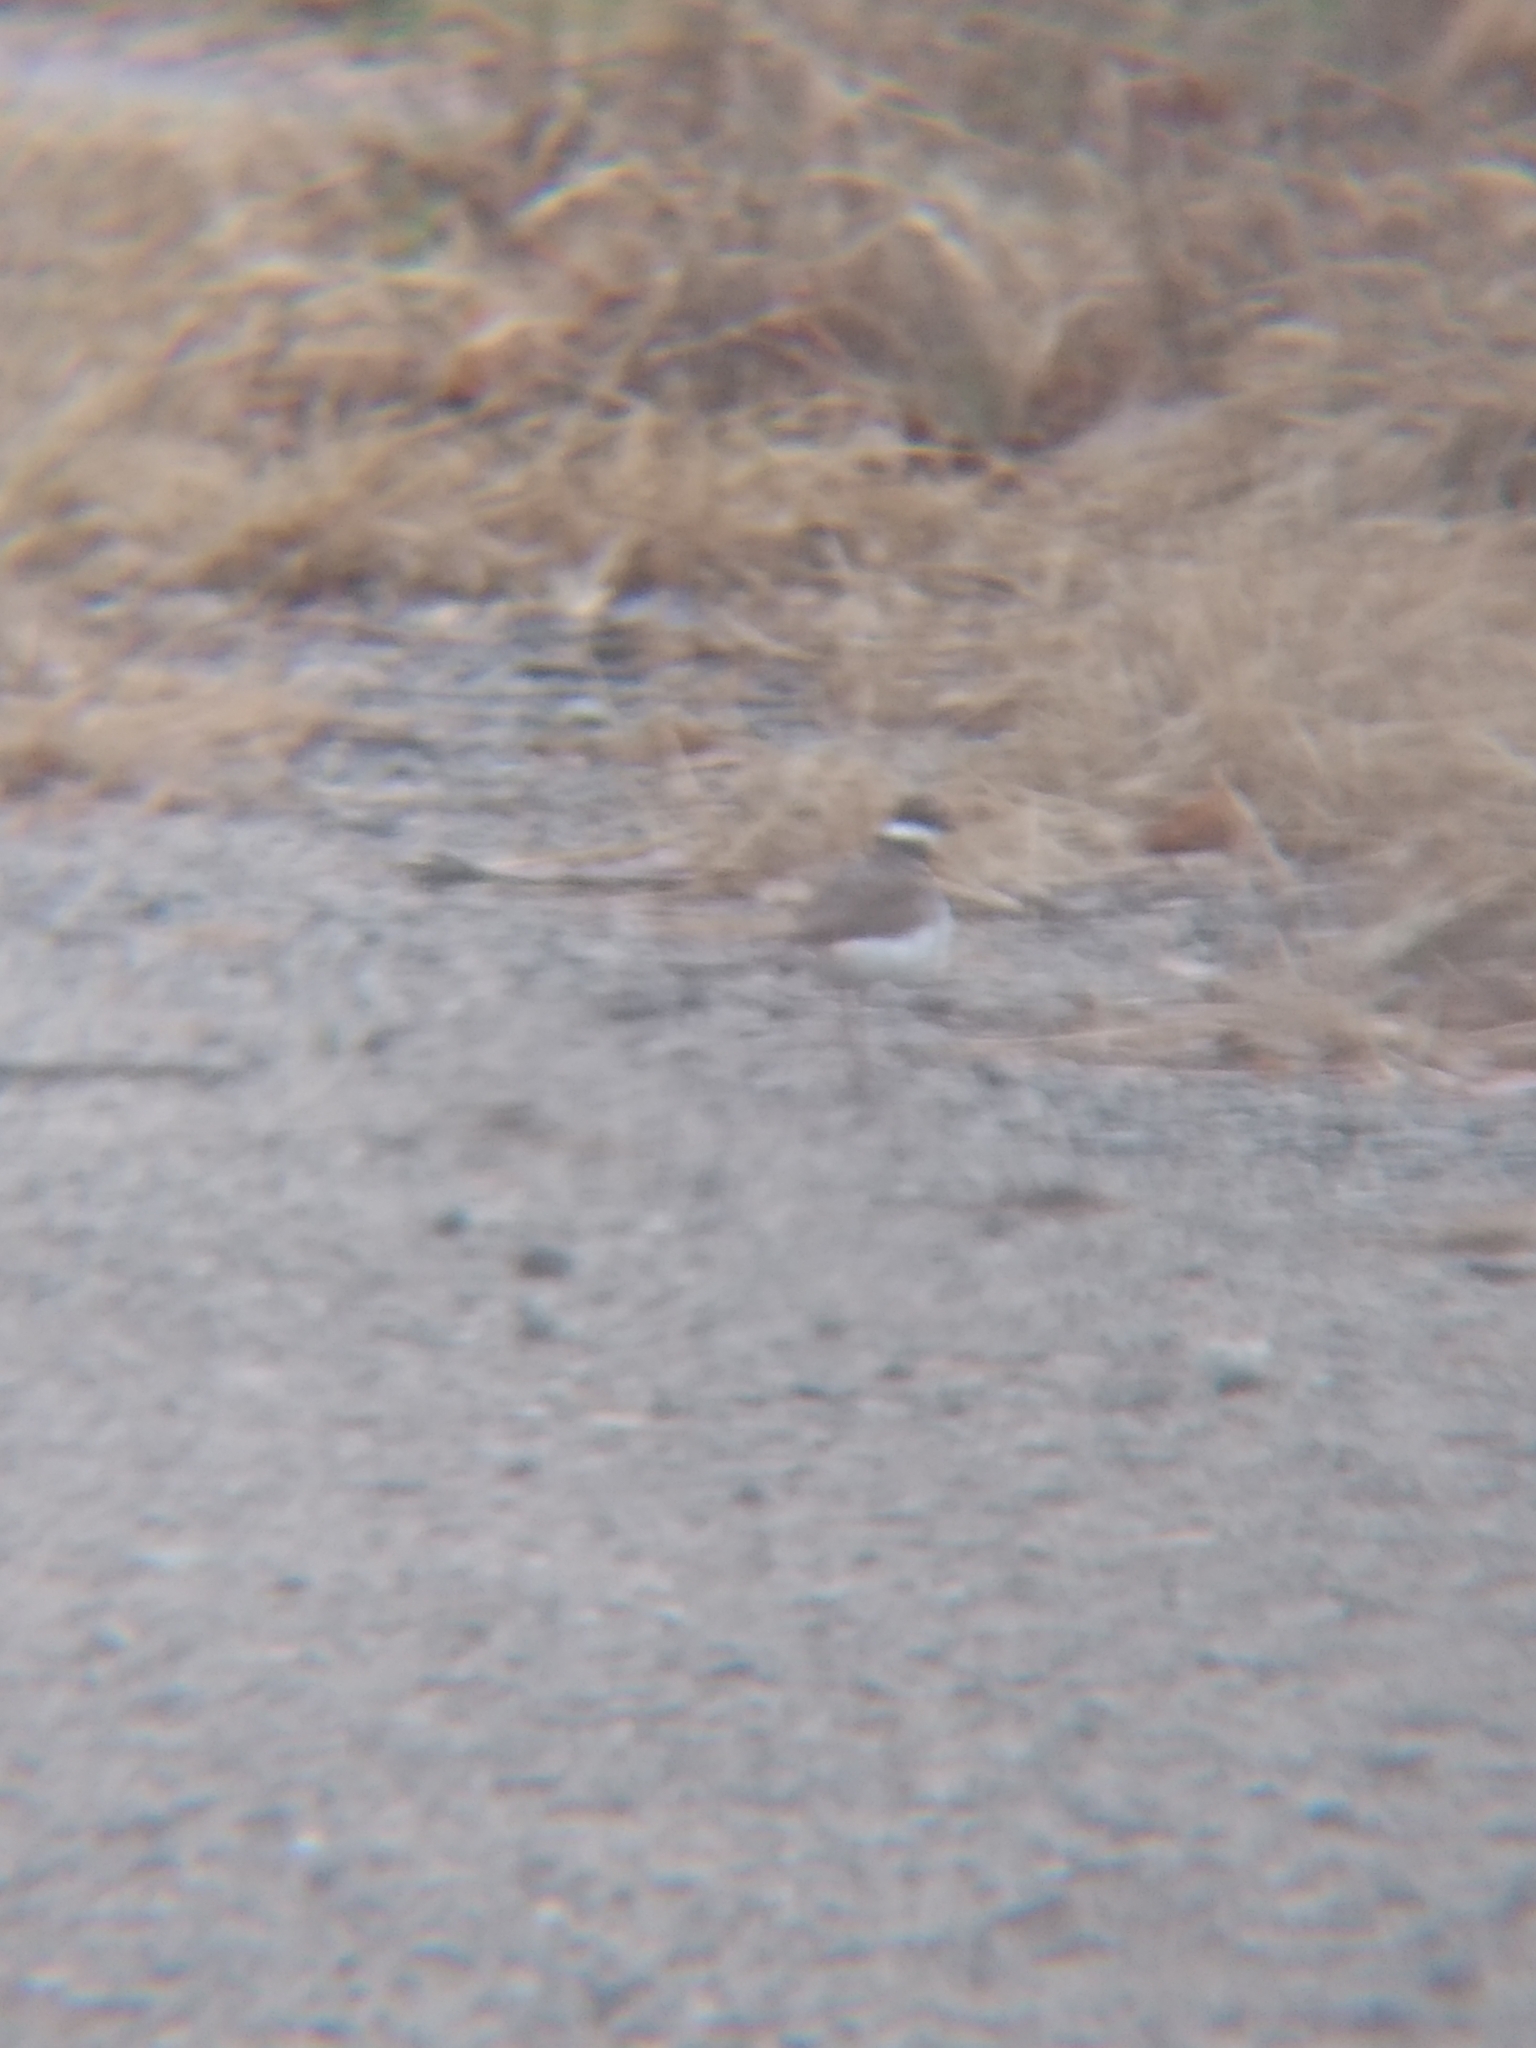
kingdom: Animalia
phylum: Chordata
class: Aves
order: Charadriiformes
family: Charadriidae
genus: Charadrius
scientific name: Charadrius vociferus
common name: Killdeer
